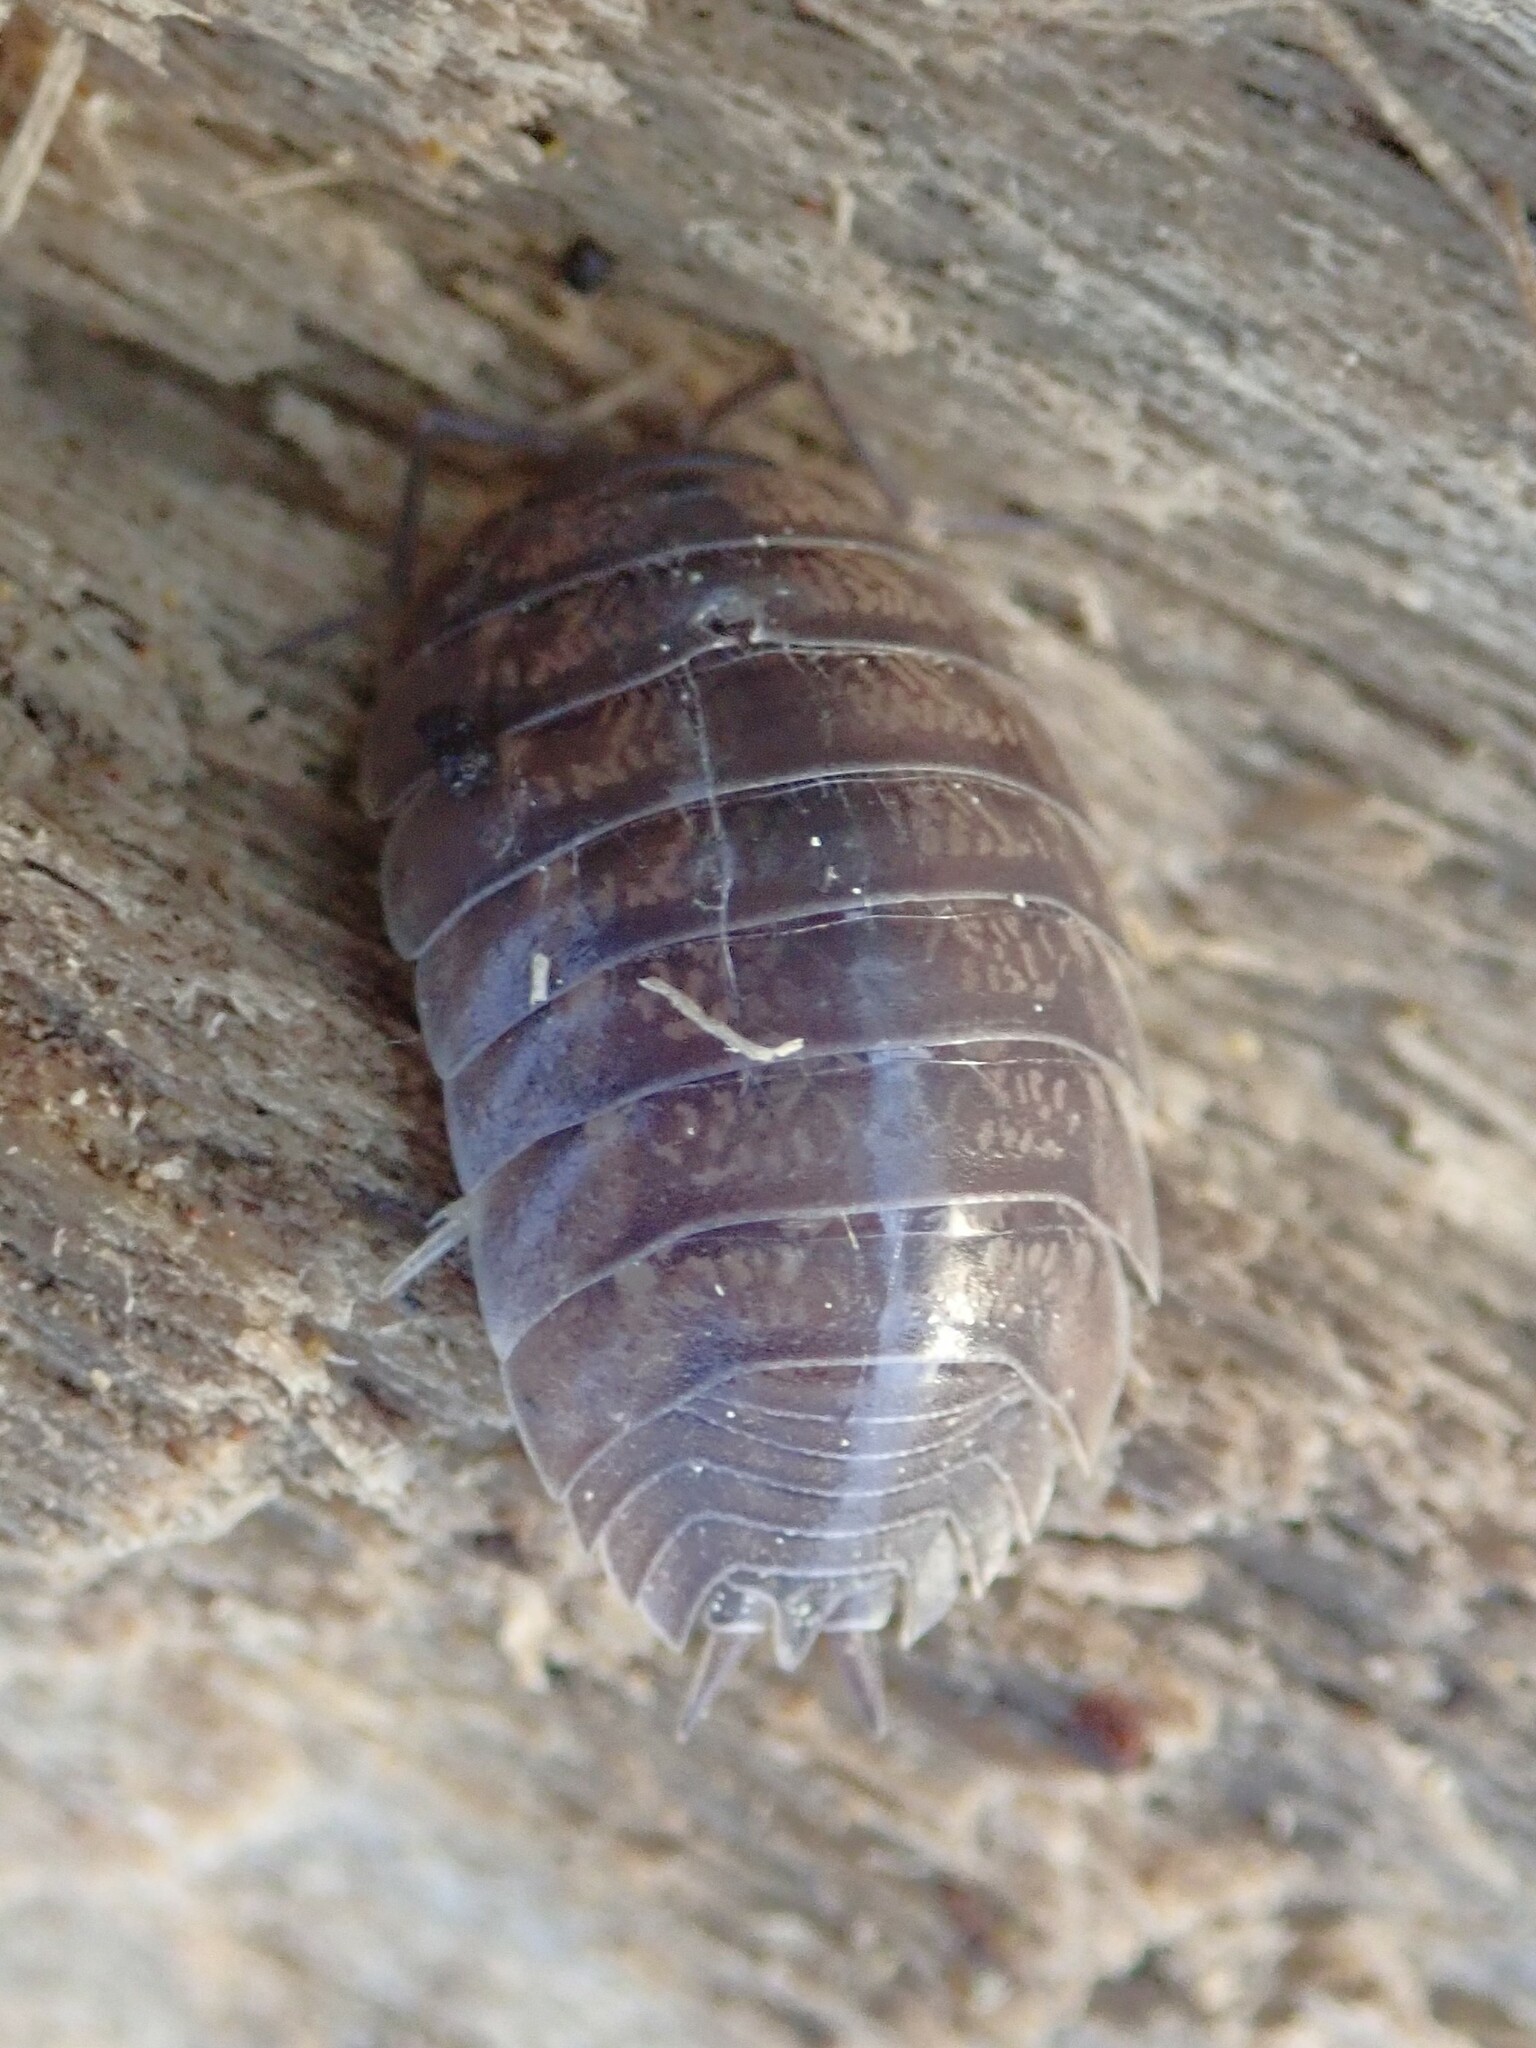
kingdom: Animalia
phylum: Arthropoda
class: Malacostraca
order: Isopoda
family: Porcellionidae
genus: Porcellio
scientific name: Porcellio laevis
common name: Swift woodlouse
